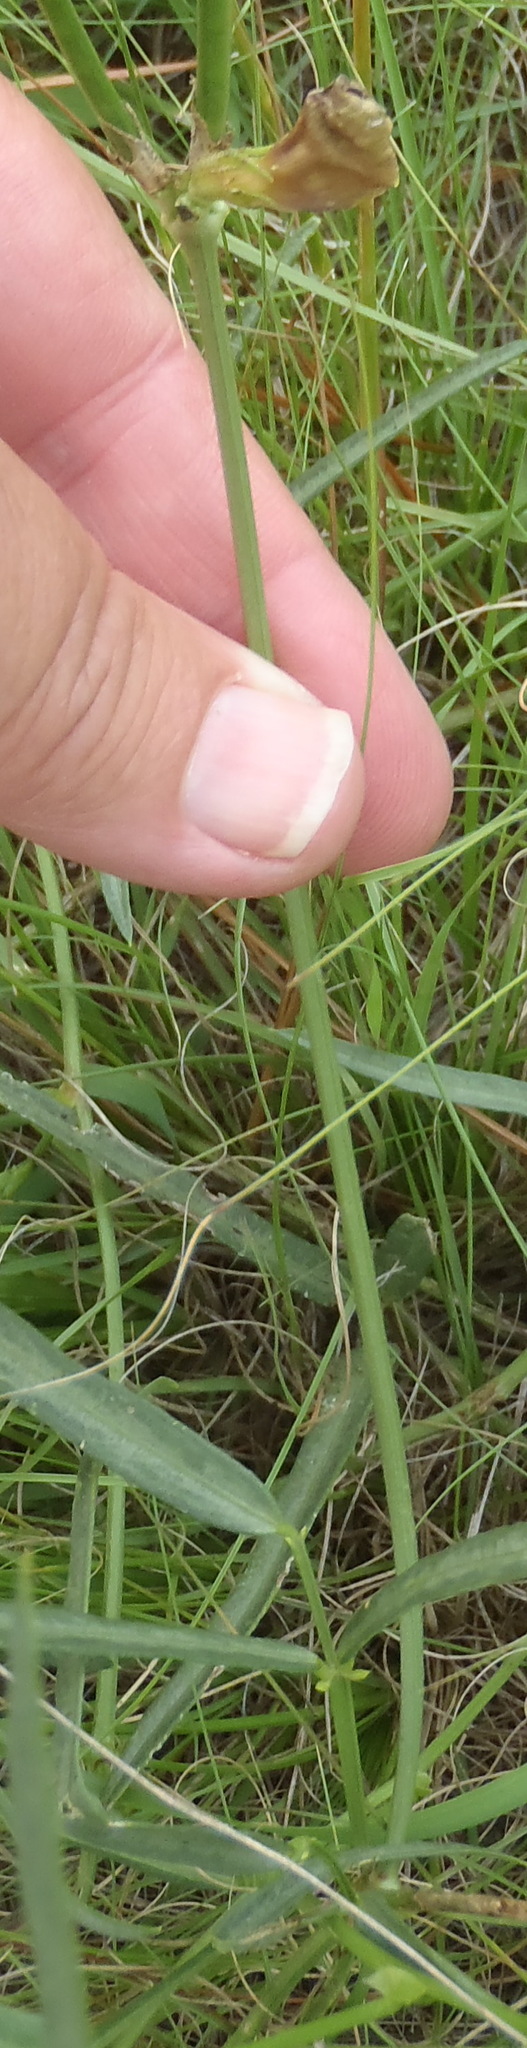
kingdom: Plantae
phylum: Tracheophyta
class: Magnoliopsida
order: Fabales
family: Fabaceae
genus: Vigna
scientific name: Vigna vexillata
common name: Zombi pea
